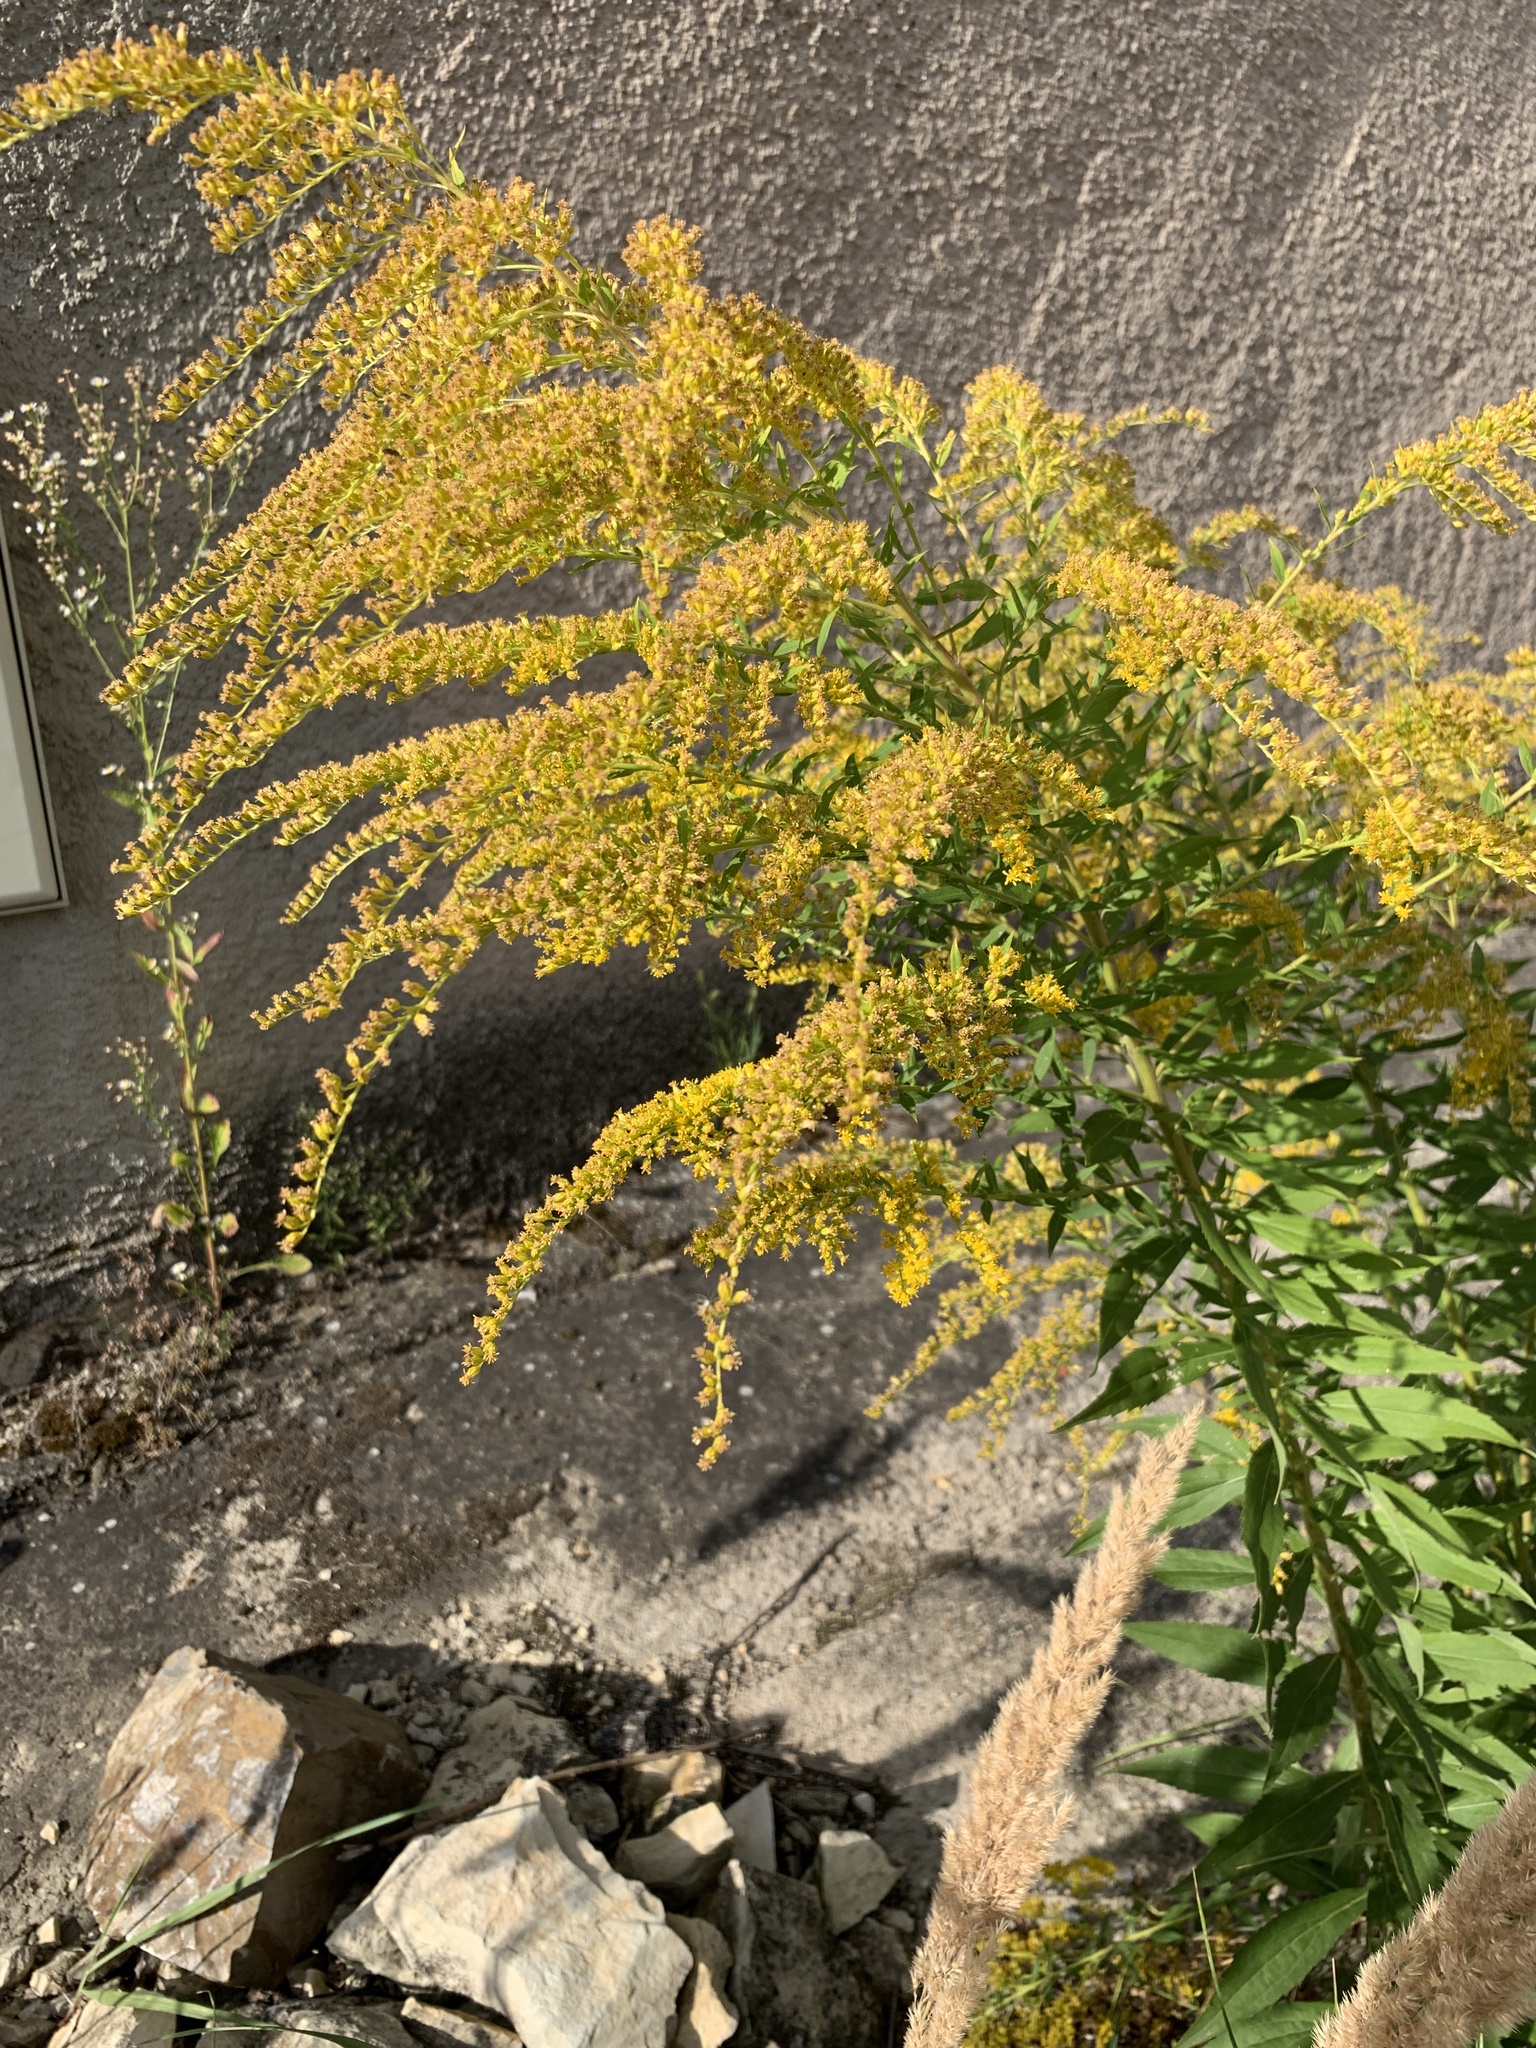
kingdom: Plantae
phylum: Tracheophyta
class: Magnoliopsida
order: Asterales
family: Asteraceae
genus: Solidago
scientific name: Solidago canadensis
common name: Canada goldenrod
